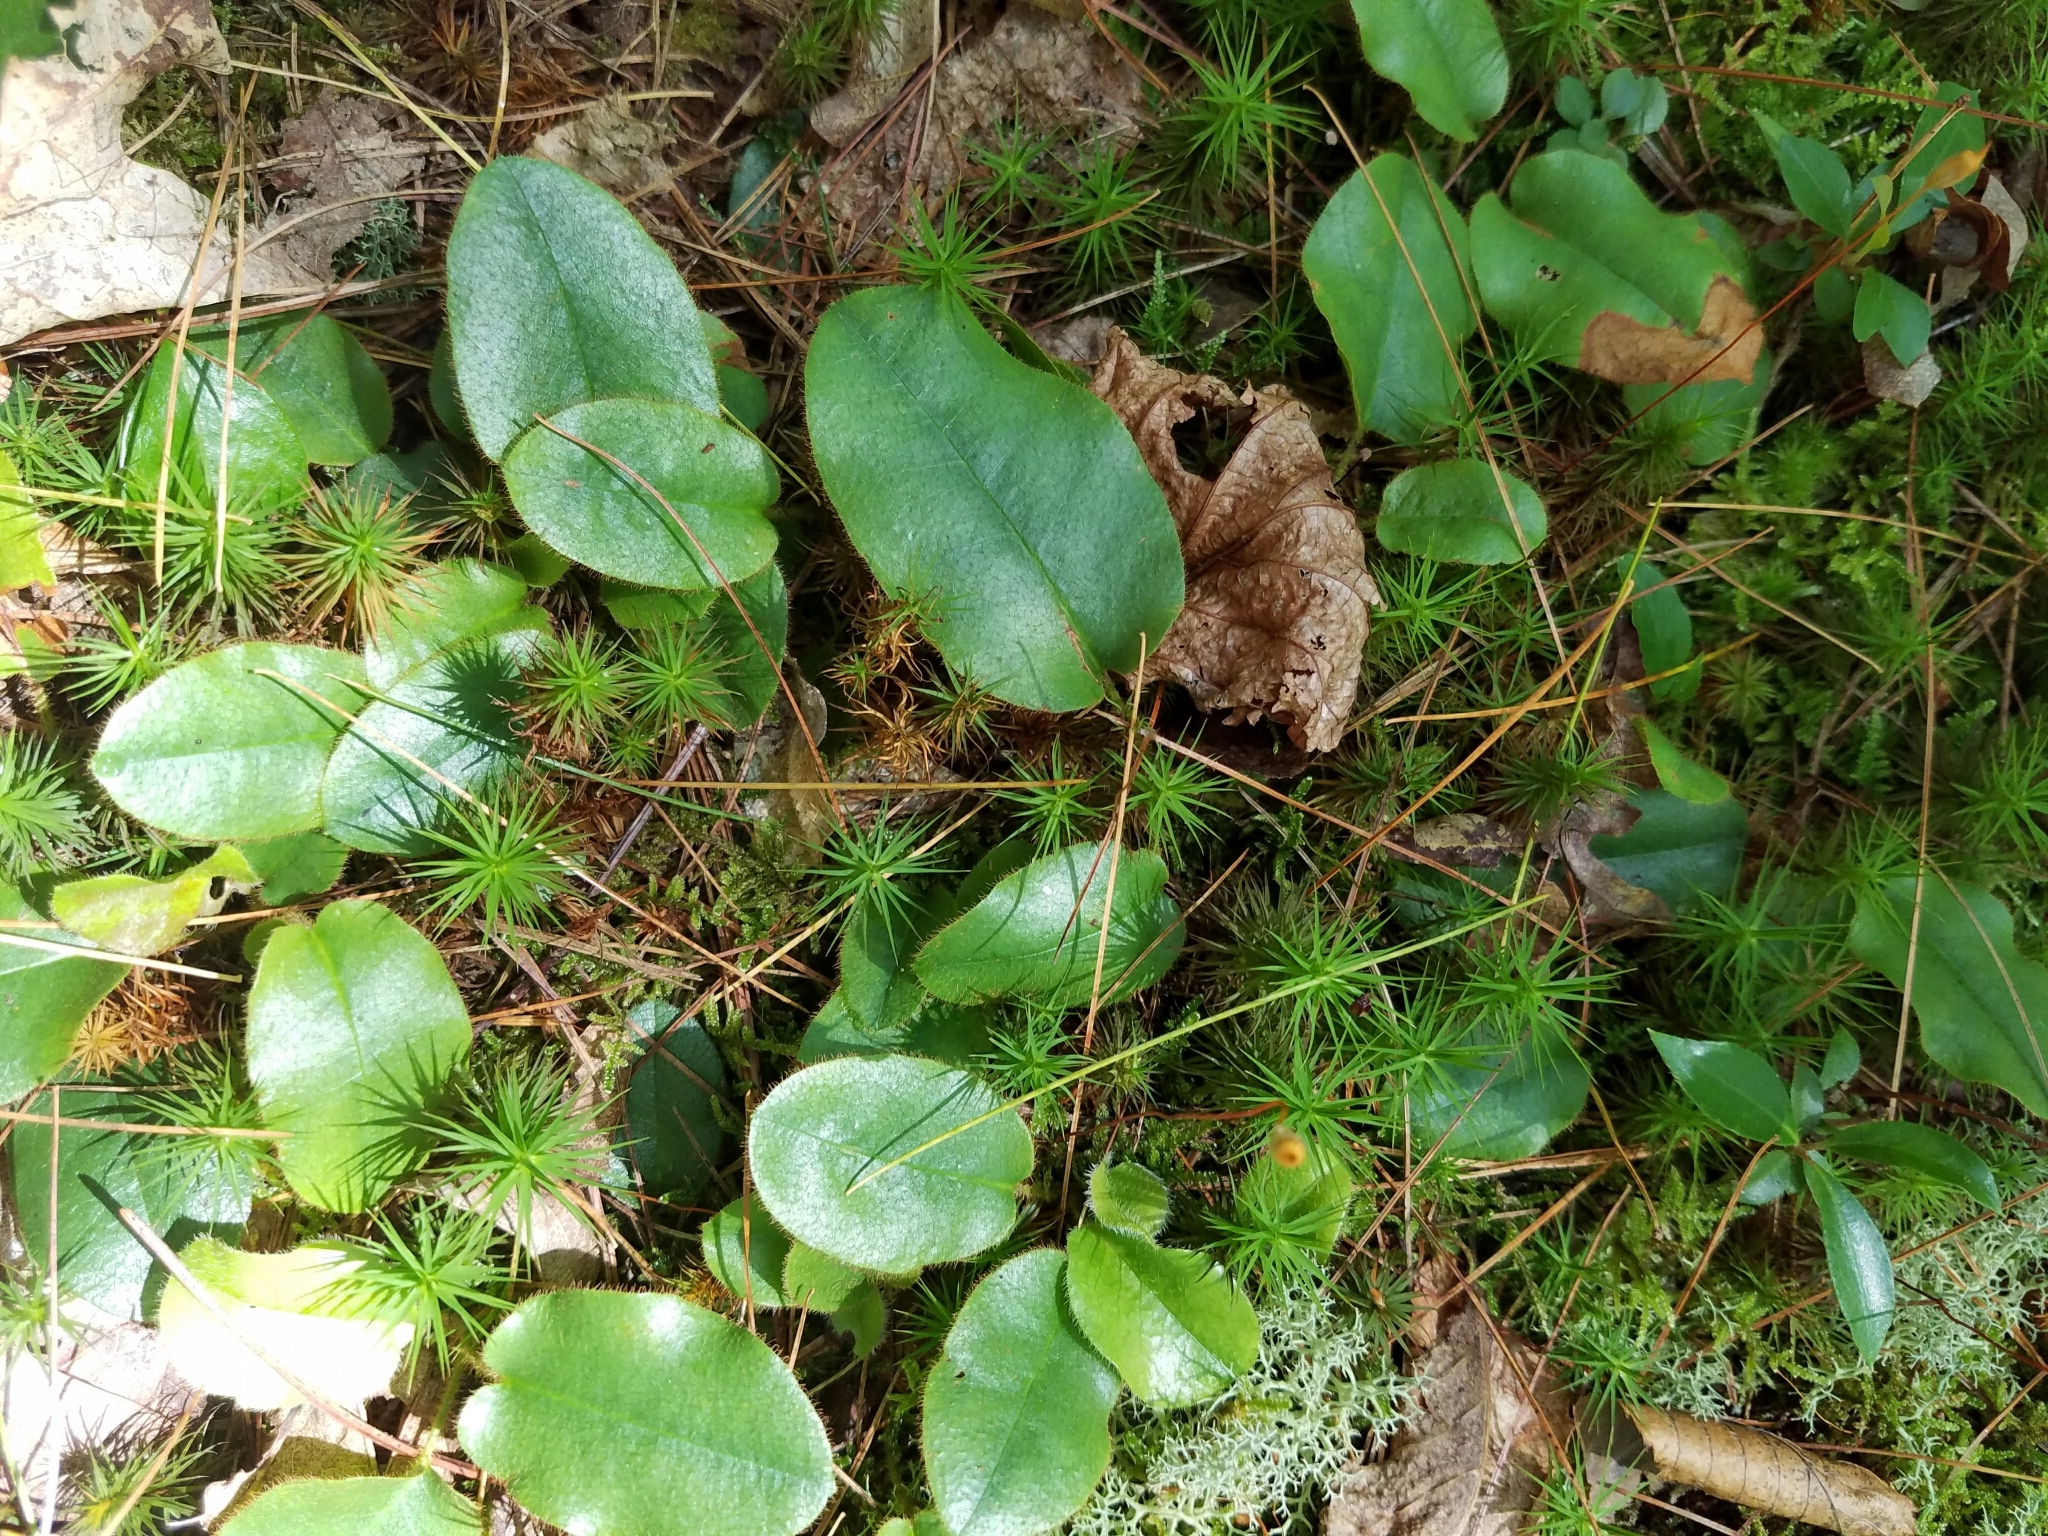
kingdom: Plantae
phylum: Tracheophyta
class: Magnoliopsida
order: Ericales
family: Ericaceae
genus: Epigaea
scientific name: Epigaea repens
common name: Gravelroot
